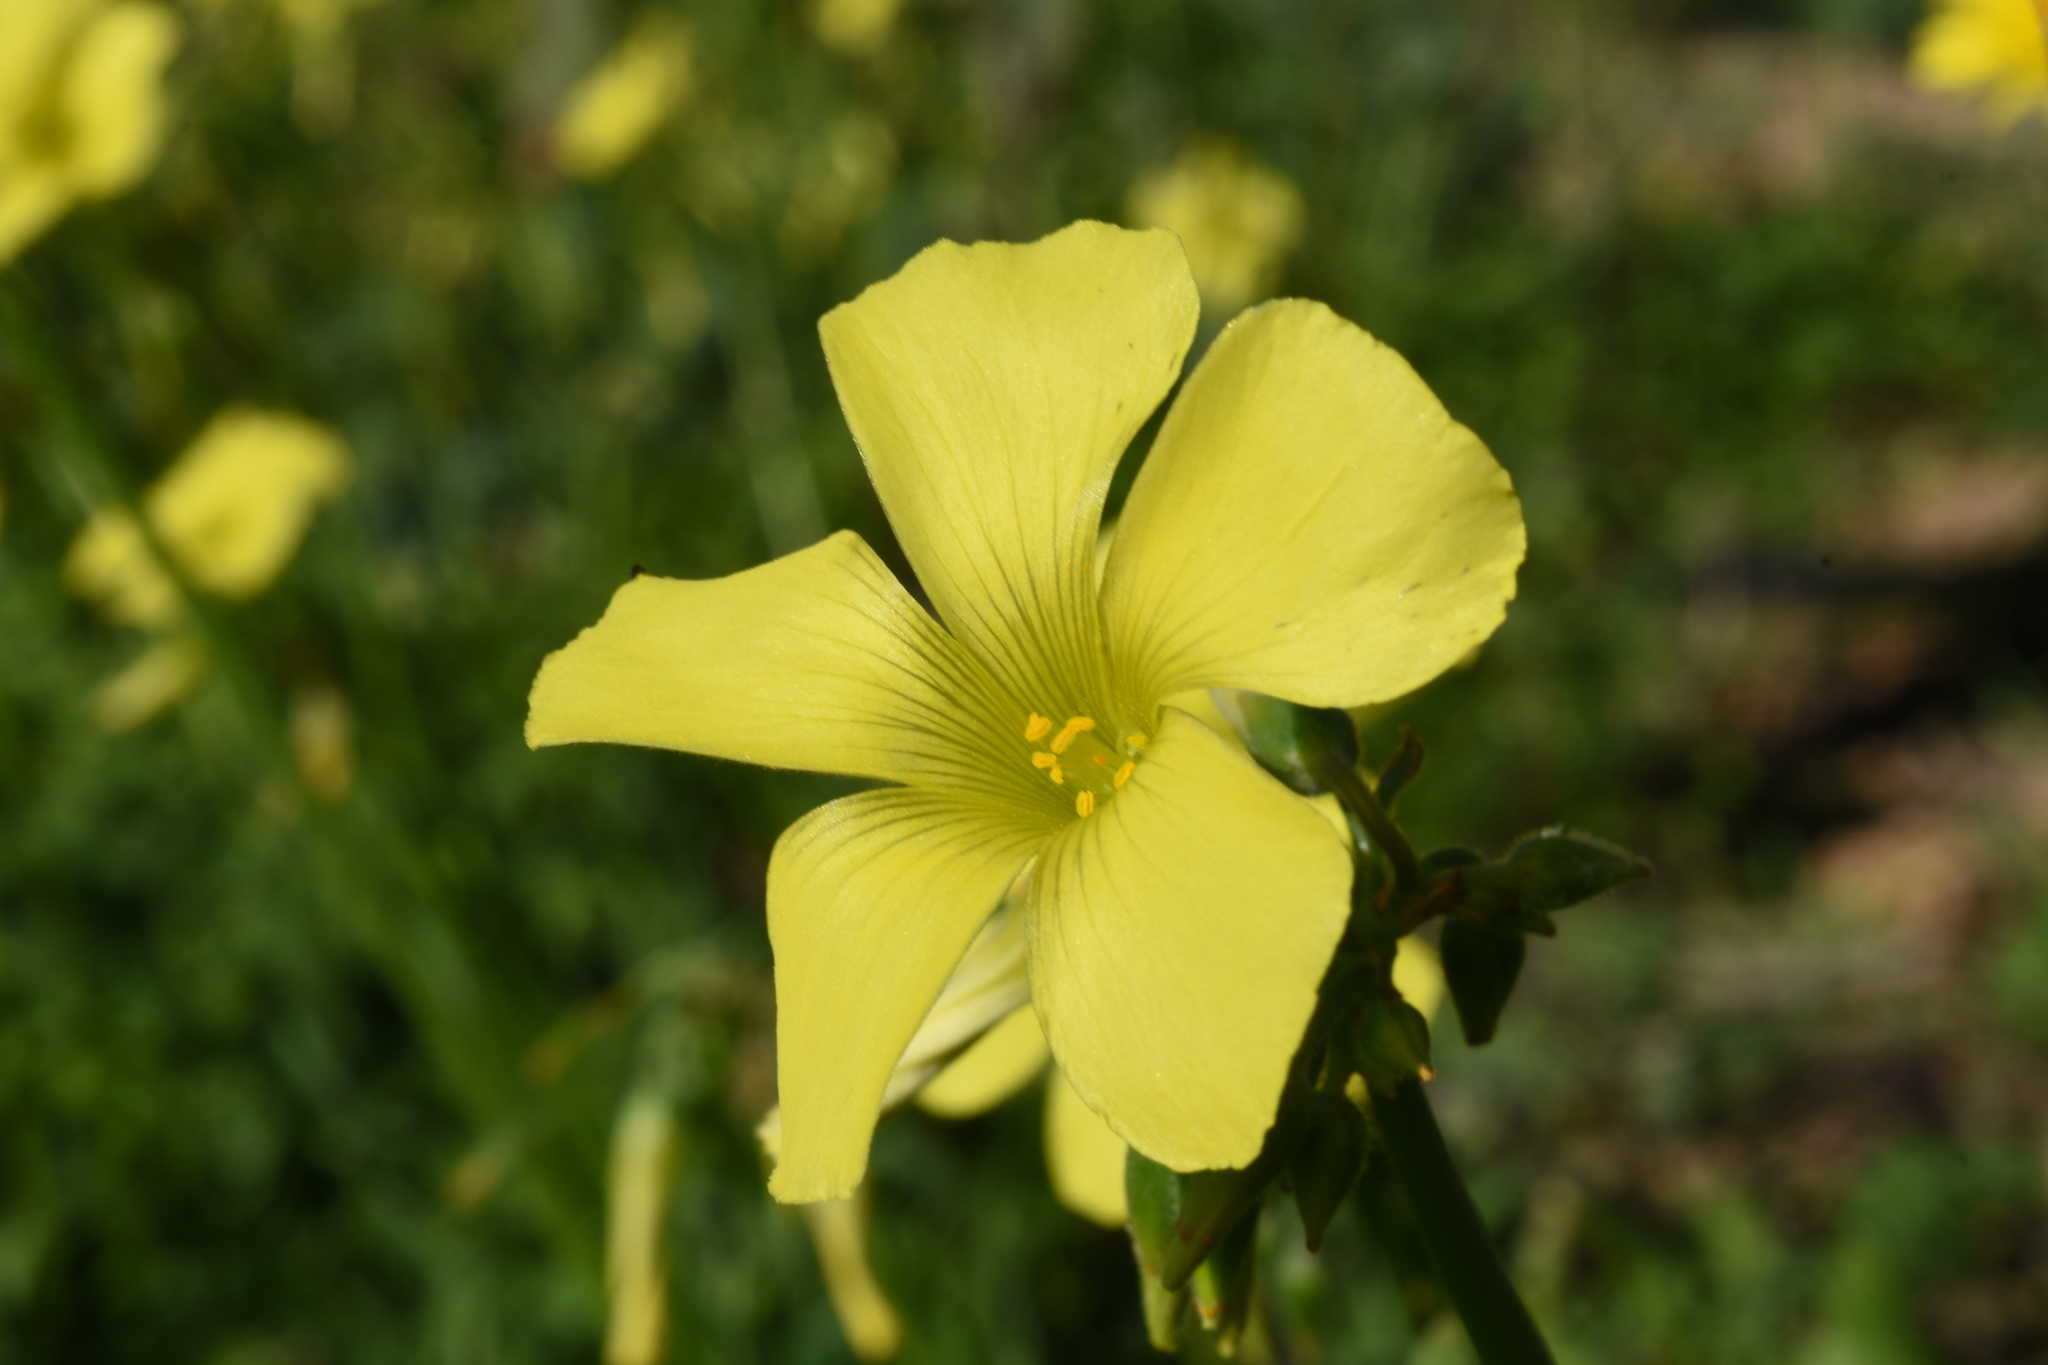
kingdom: Plantae
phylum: Tracheophyta
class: Magnoliopsida
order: Oxalidales
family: Oxalidaceae
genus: Oxalis
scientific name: Oxalis pes-caprae
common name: Bermuda-buttercup
